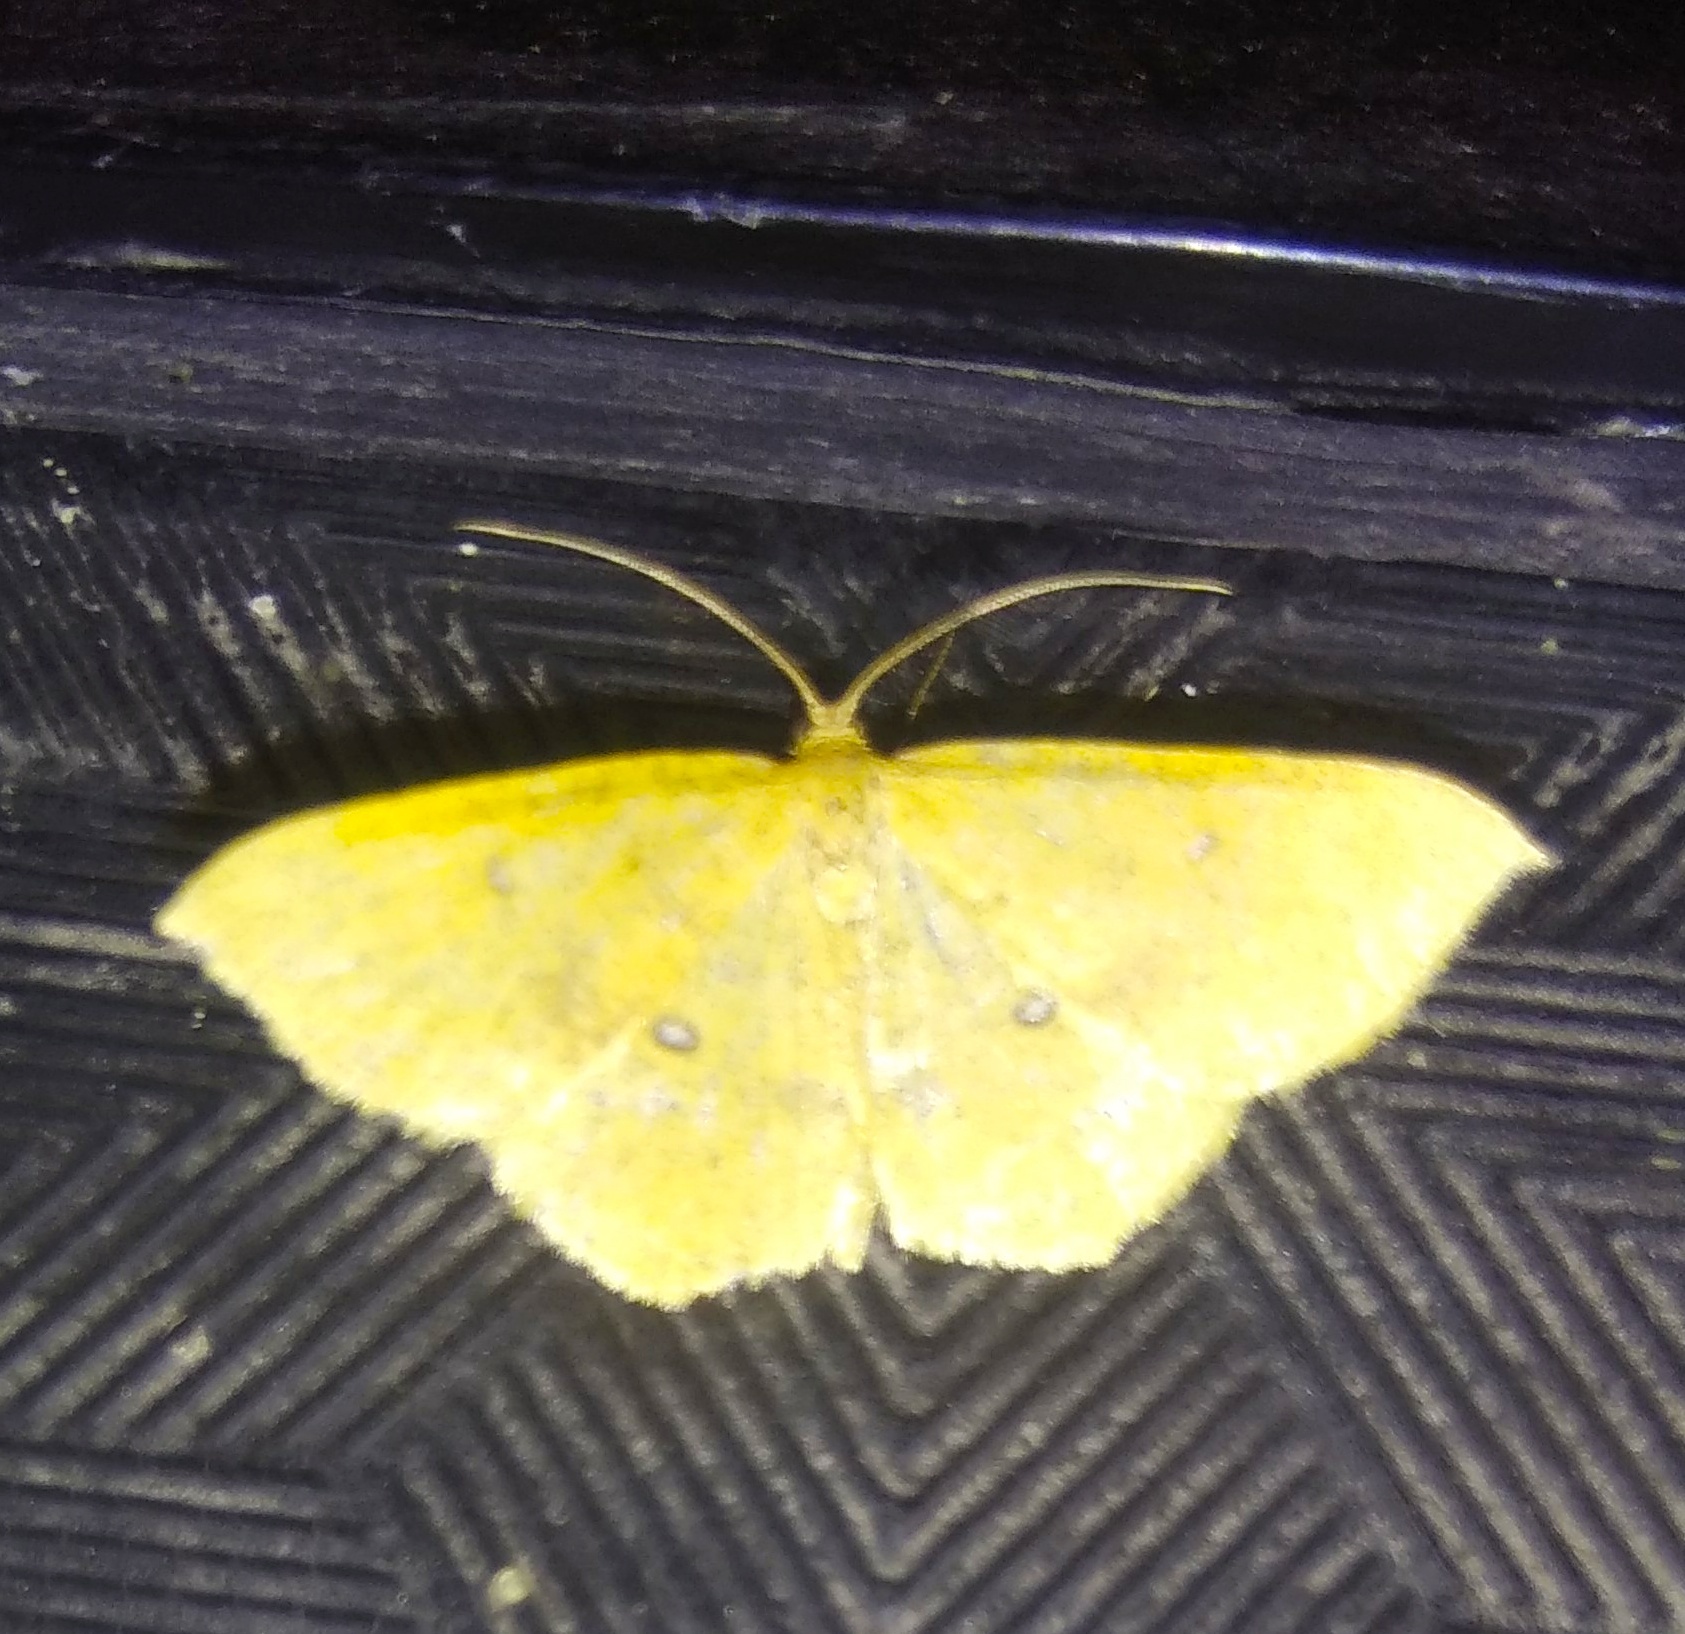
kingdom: Animalia
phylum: Arthropoda
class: Insecta
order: Lepidoptera
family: Geometridae
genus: Palaeaspilates
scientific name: Palaeaspilates Anisephyra ocularia
